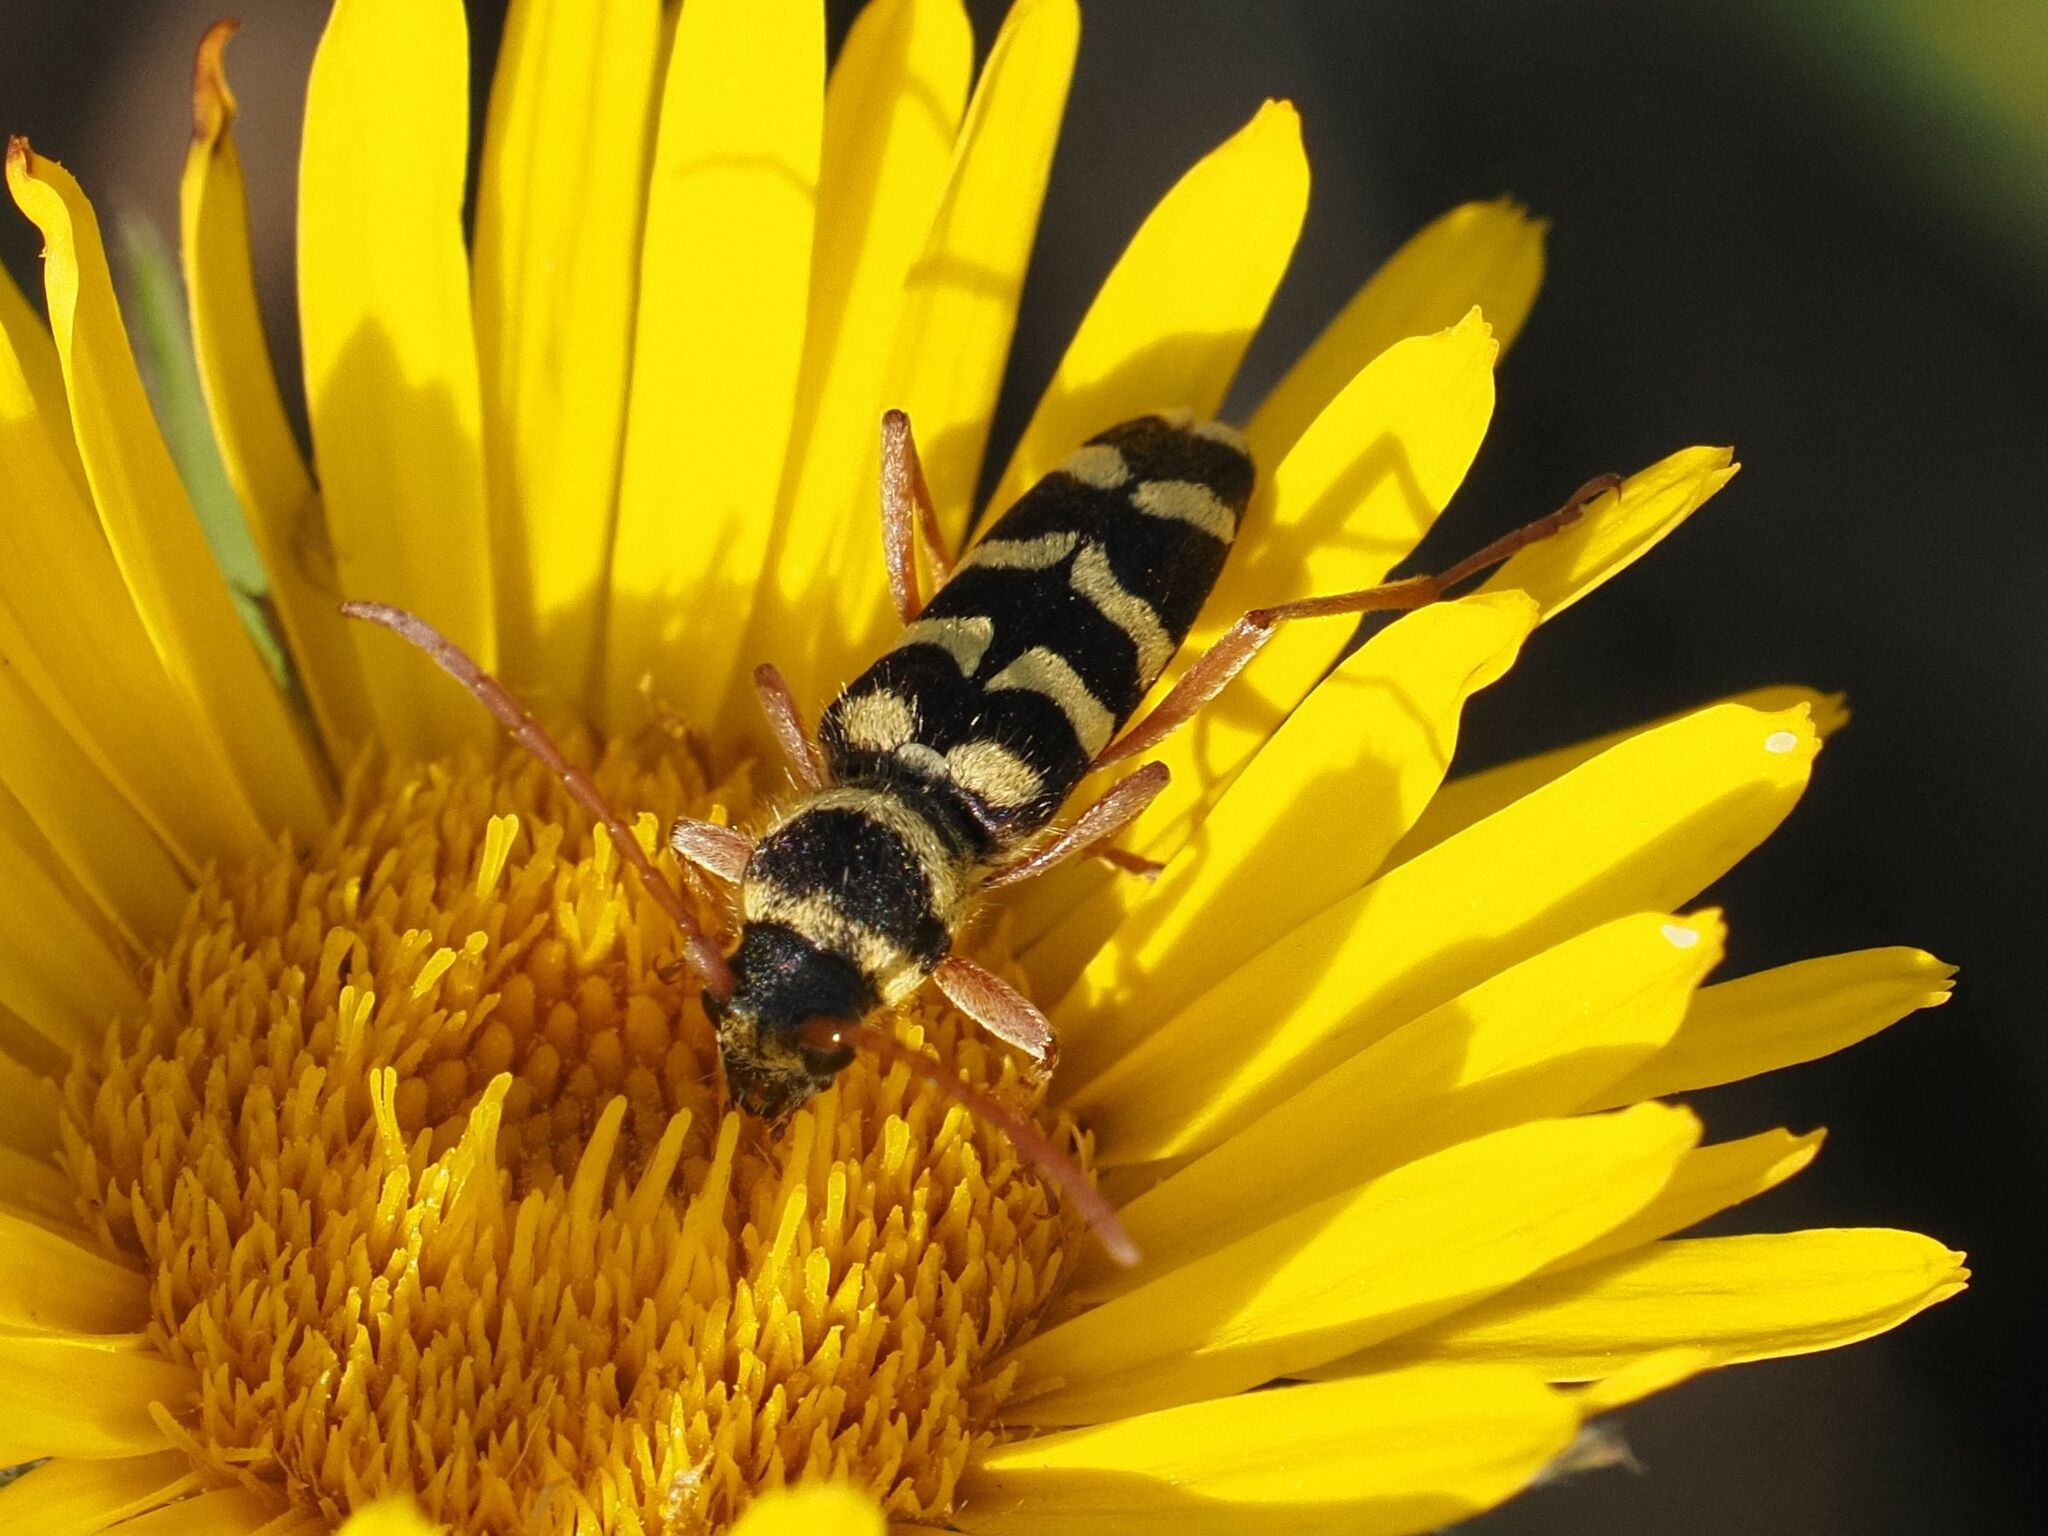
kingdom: Animalia
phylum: Arthropoda
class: Insecta
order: Coleoptera
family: Cerambycidae
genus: Plagionotus
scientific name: Plagionotus floralis
